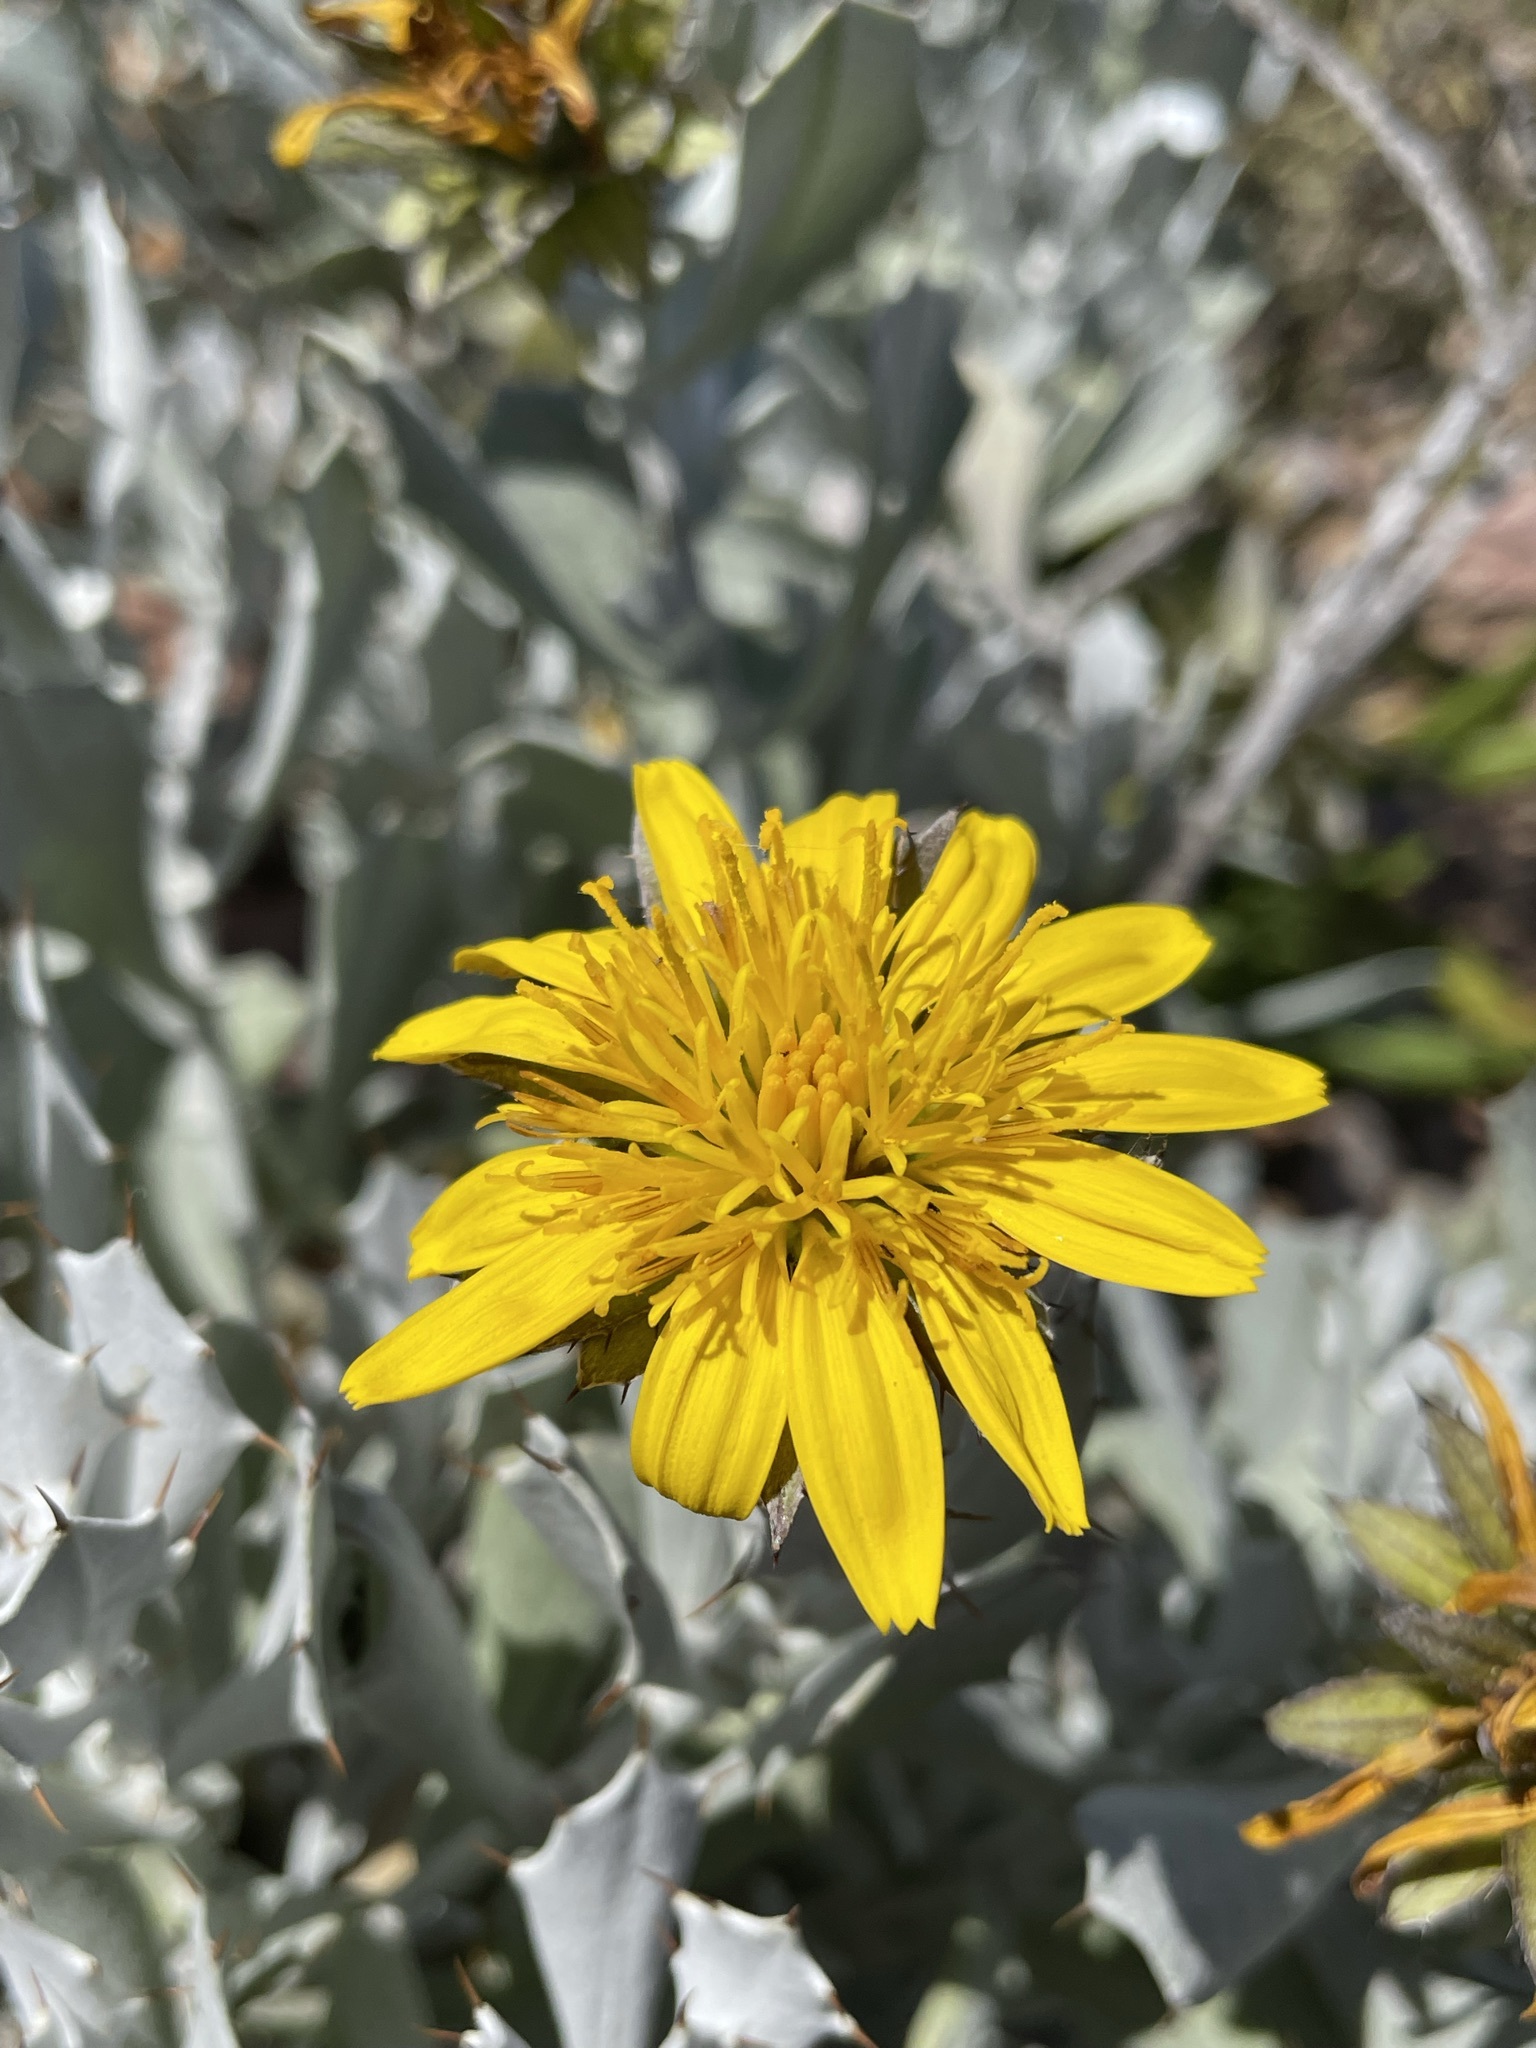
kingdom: Plantae
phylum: Tracheophyta
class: Magnoliopsida
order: Asterales
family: Asteraceae
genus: Berkheya
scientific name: Berkheya cuneata
